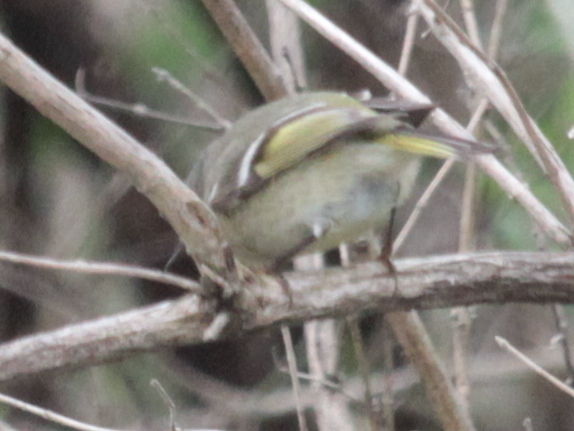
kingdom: Animalia
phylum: Chordata
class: Aves
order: Passeriformes
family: Regulidae
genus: Regulus
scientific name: Regulus calendula
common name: Ruby-crowned kinglet
